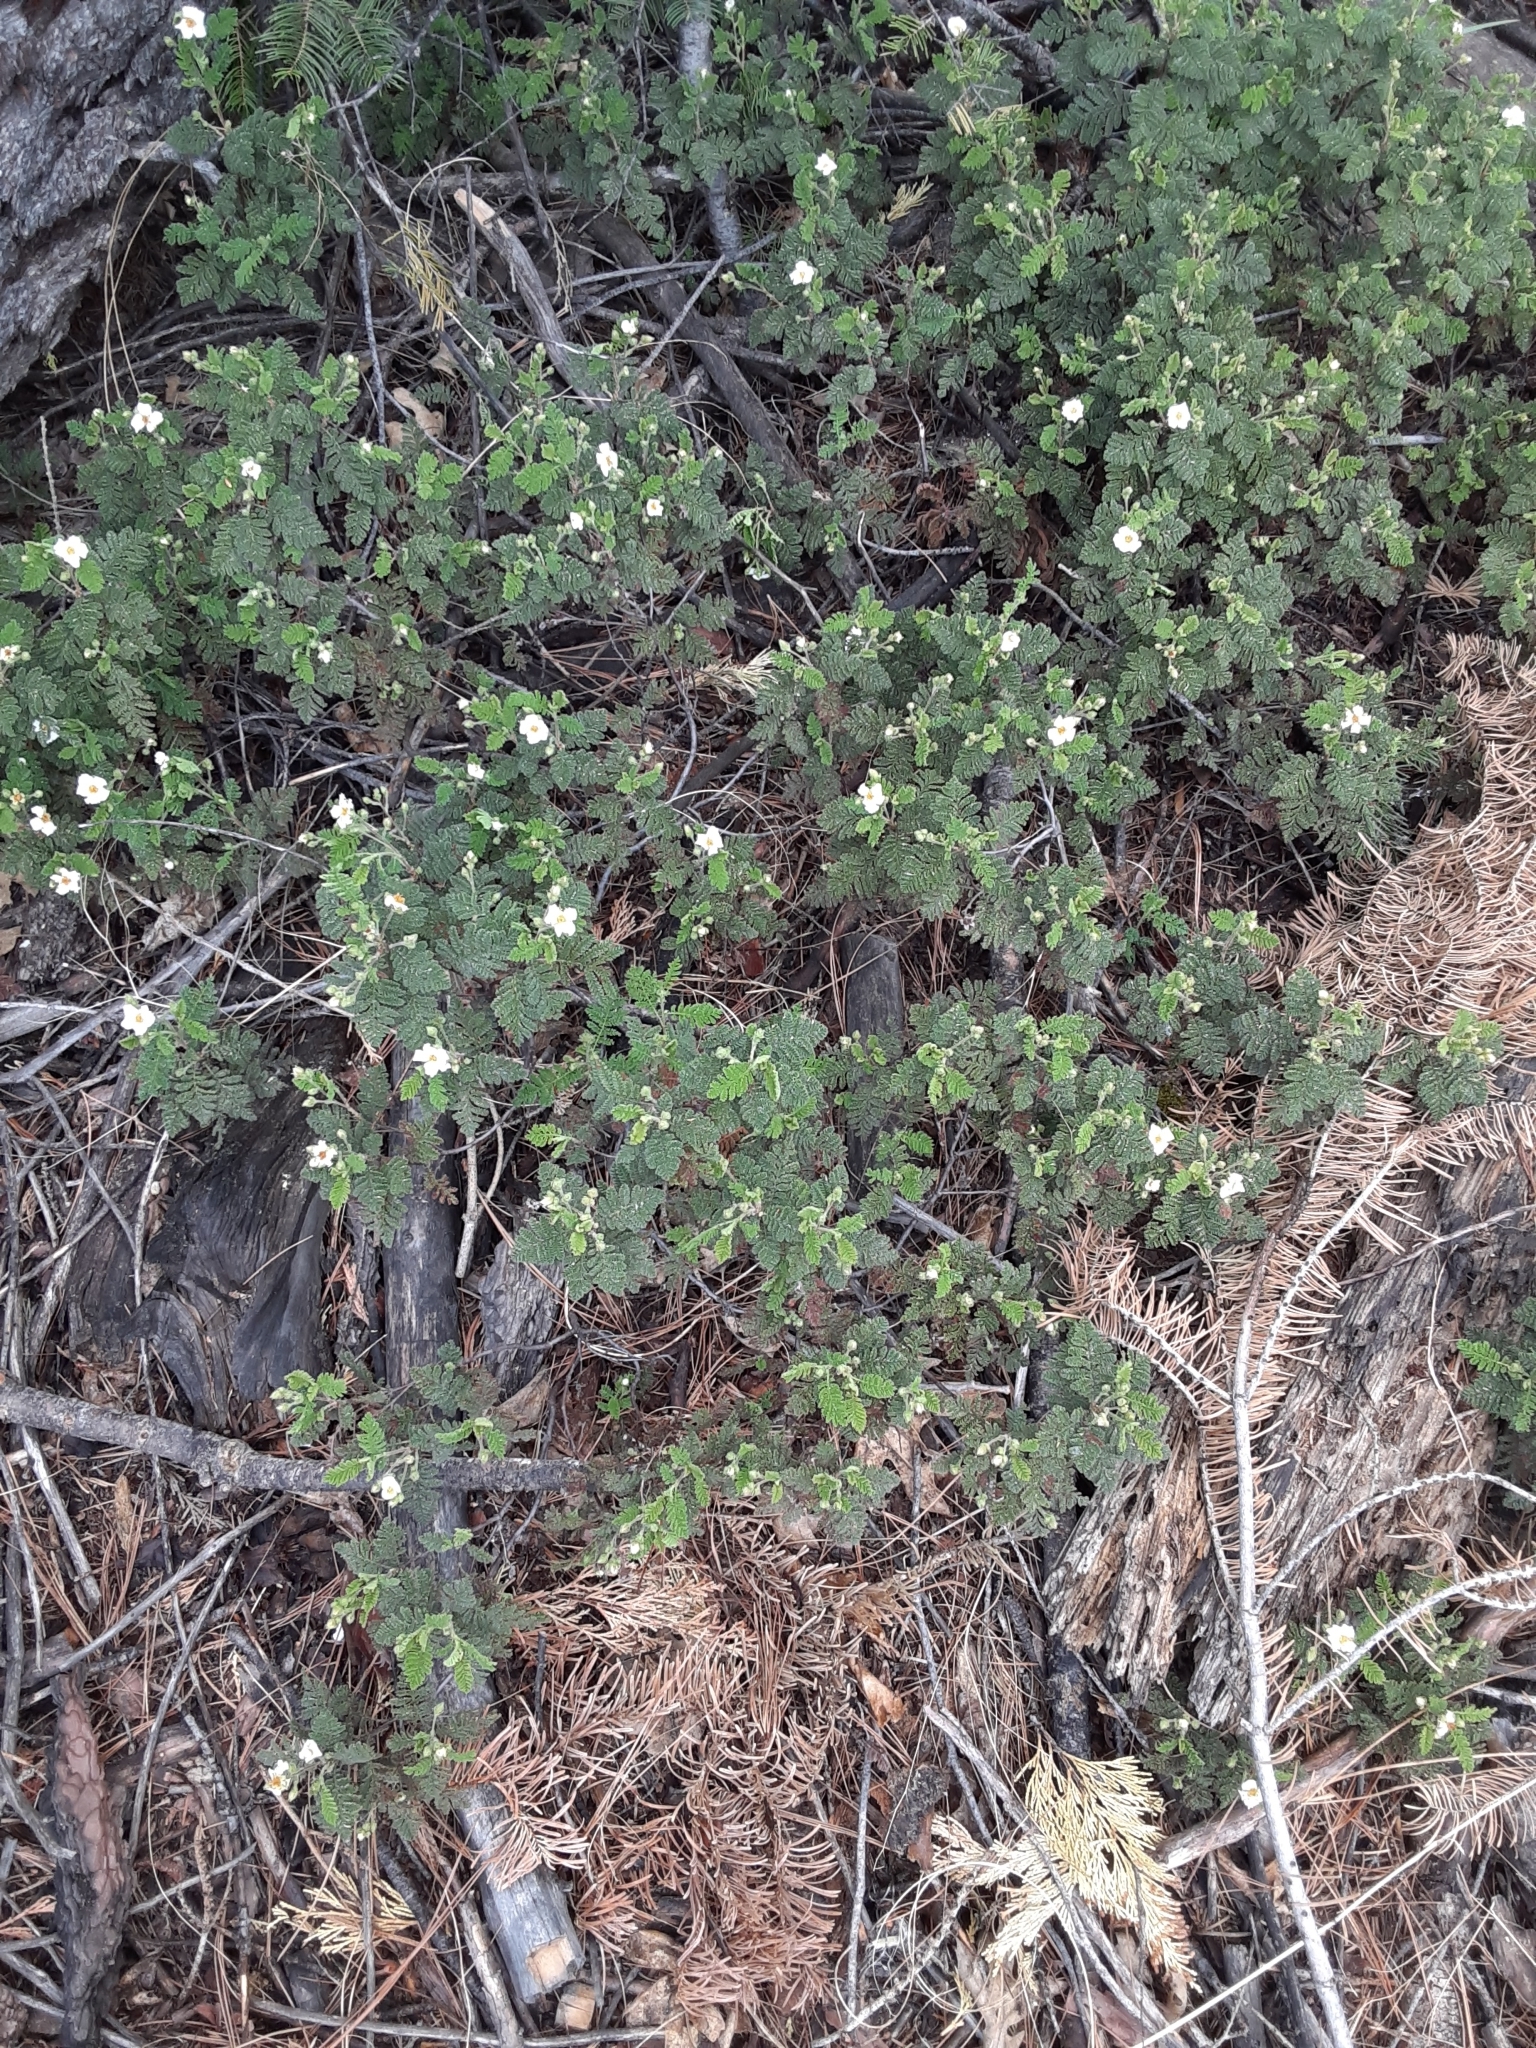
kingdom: Plantae
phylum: Tracheophyta
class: Magnoliopsida
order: Rosales
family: Rosaceae
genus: Chamaebatia
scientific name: Chamaebatia foliolosa
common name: Mountain misery
